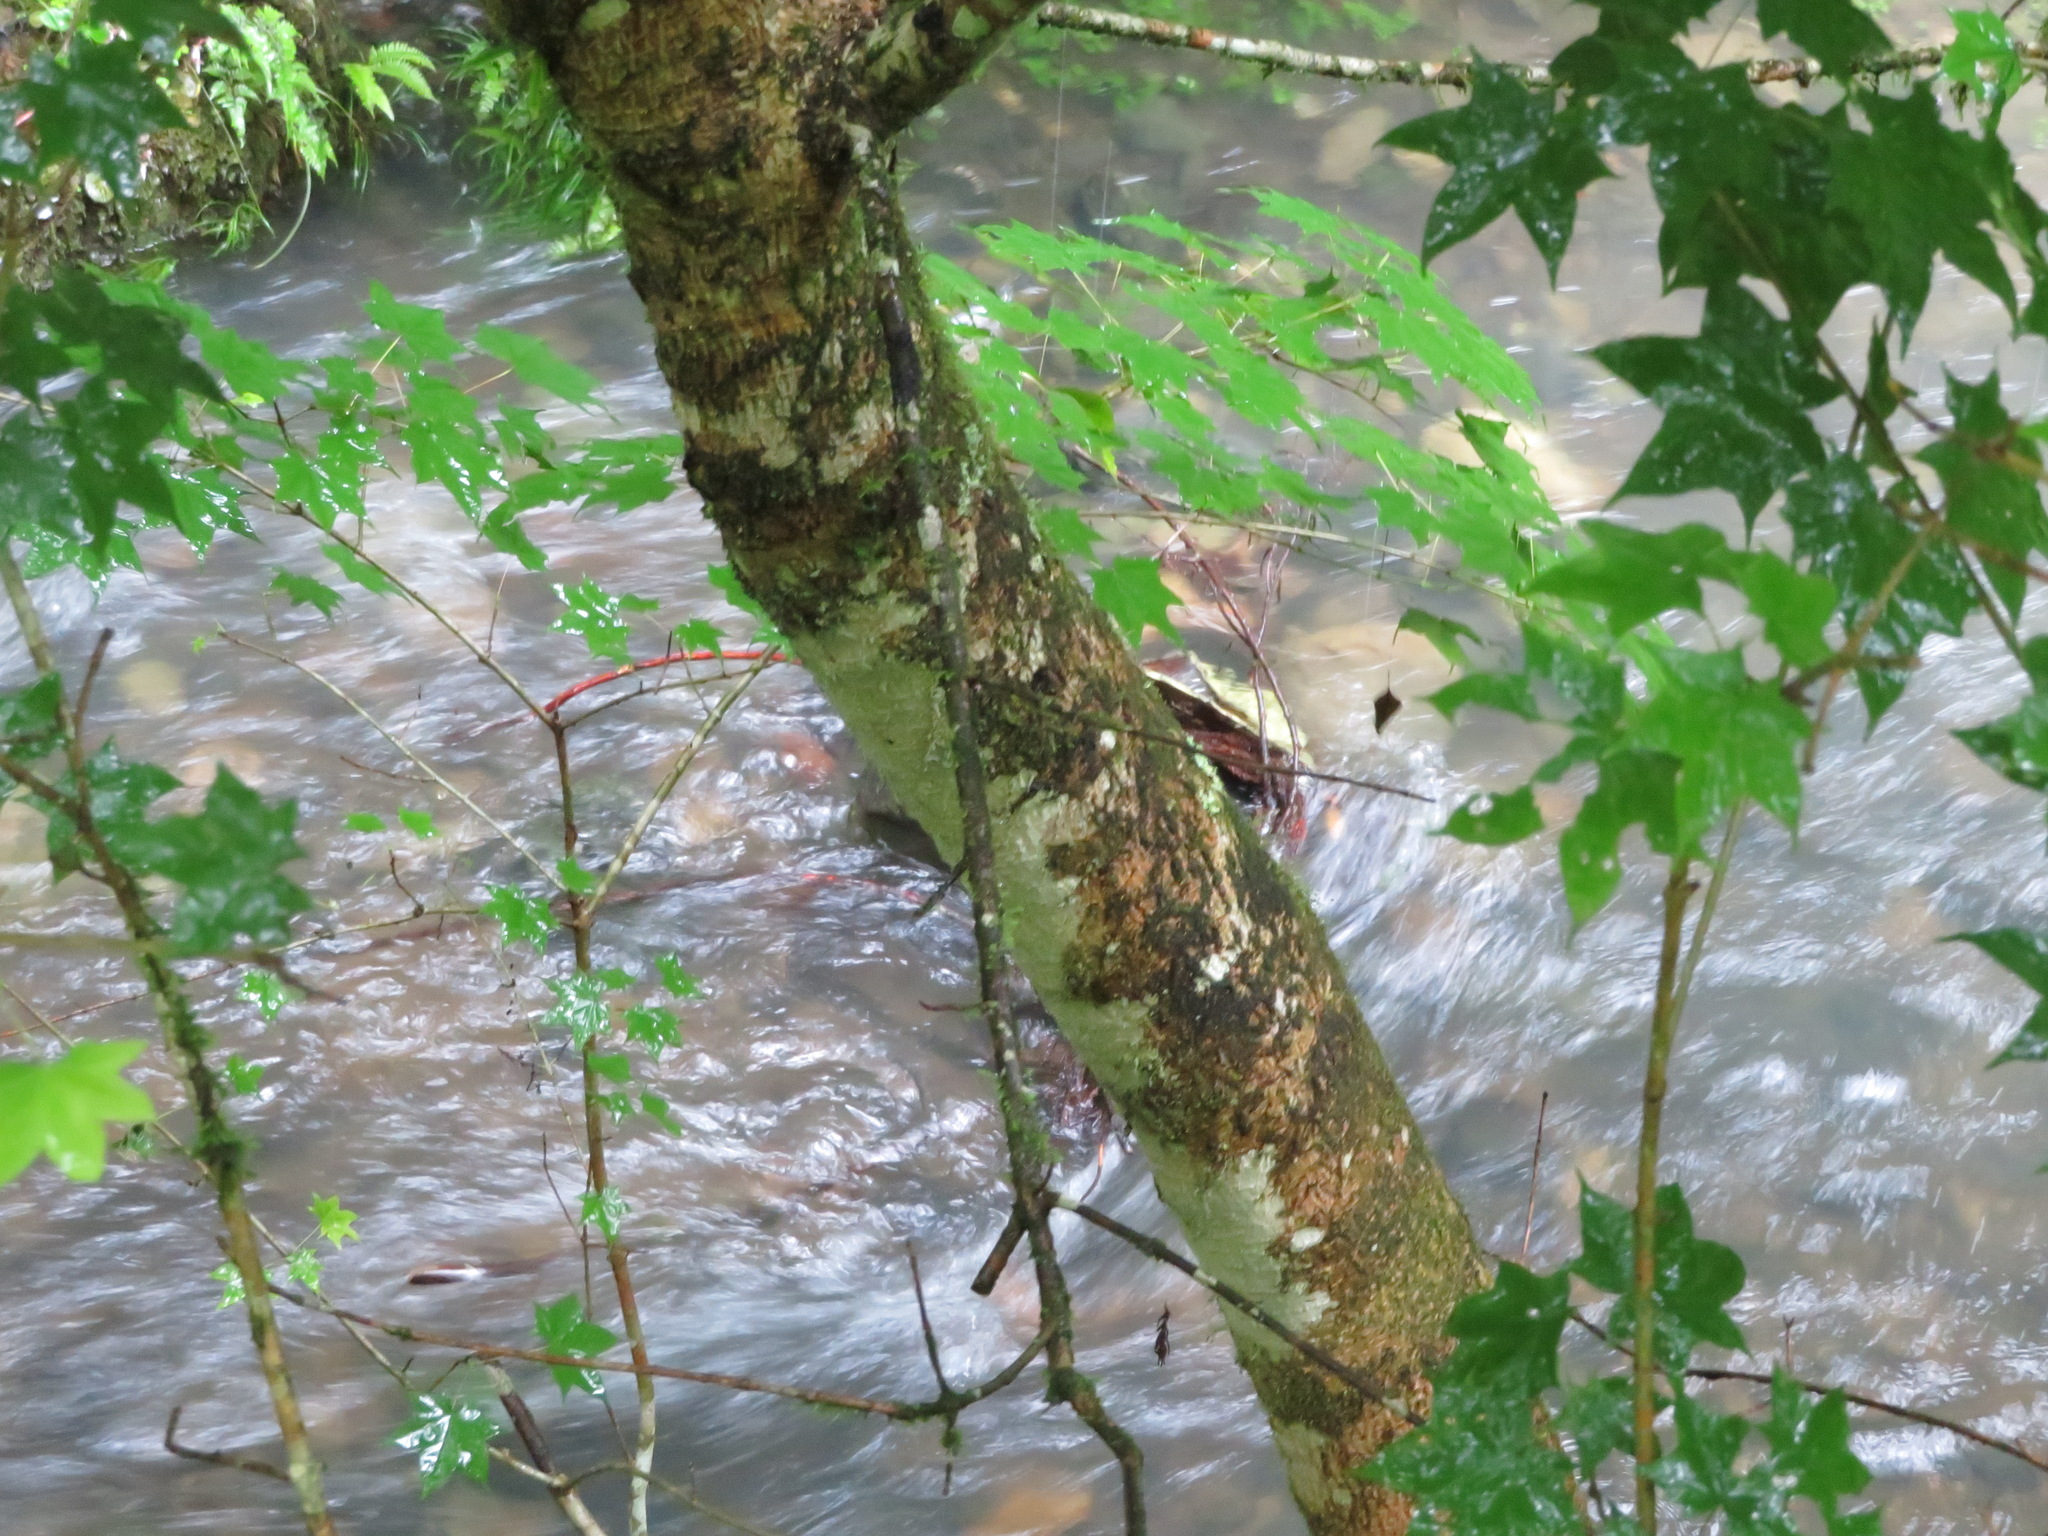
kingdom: Plantae
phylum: Tracheophyta
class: Magnoliopsida
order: Sapindales
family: Sapindaceae
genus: Acer
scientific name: Acer pictum
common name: The painted maple
